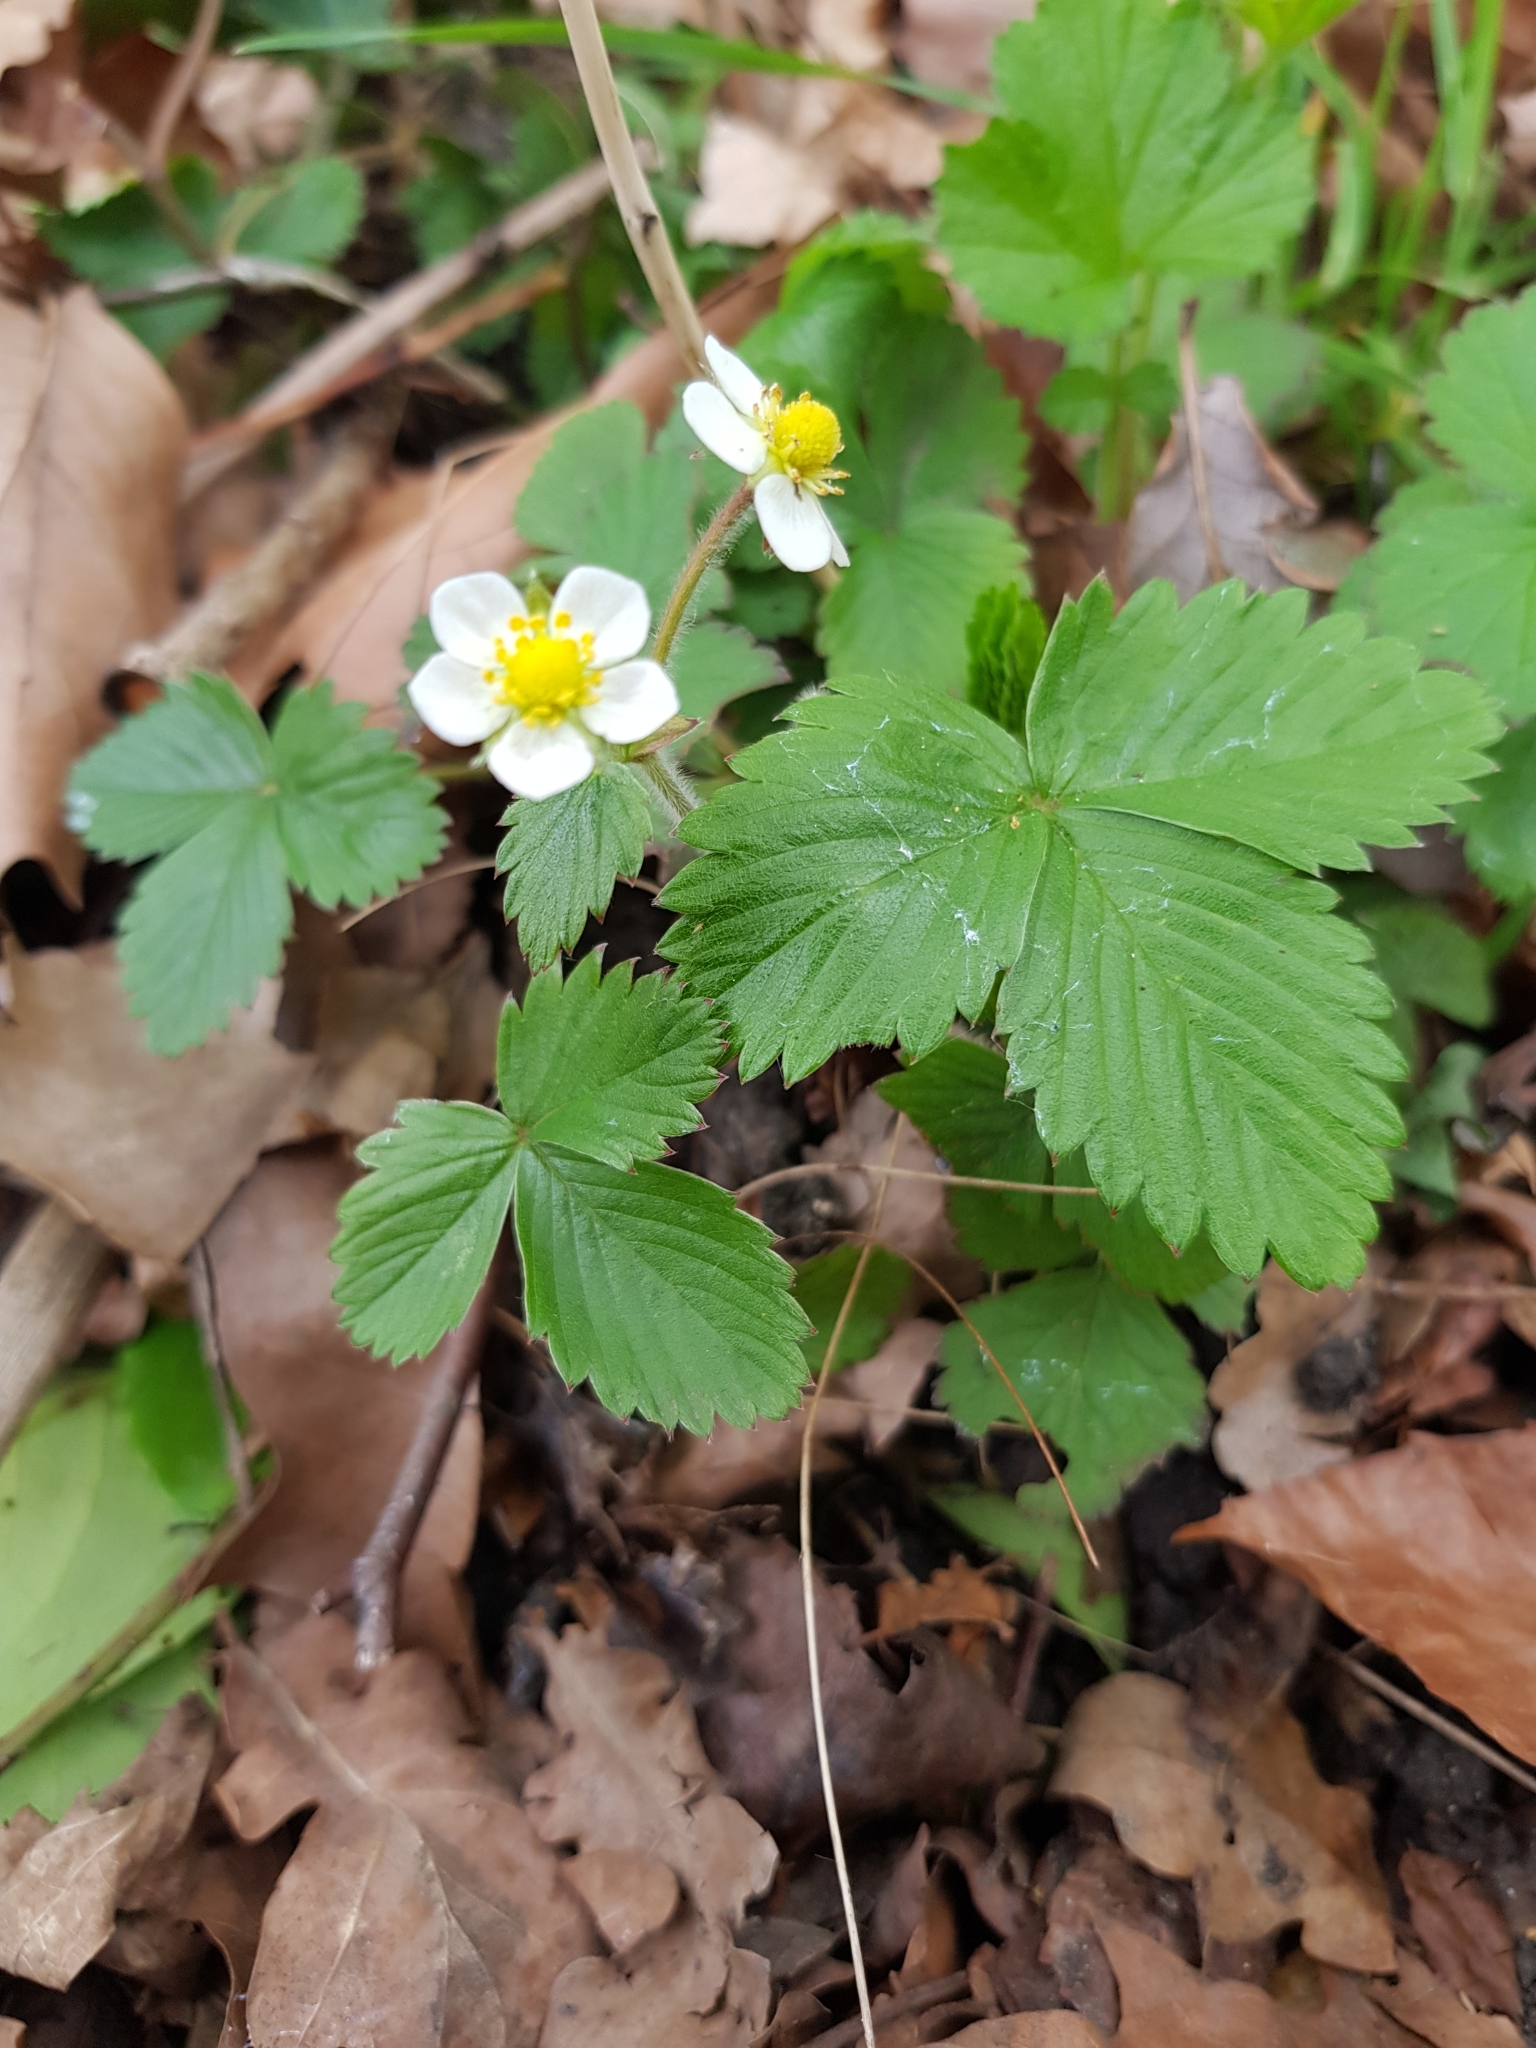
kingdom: Plantae
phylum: Tracheophyta
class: Magnoliopsida
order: Rosales
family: Rosaceae
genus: Fragaria
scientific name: Fragaria vesca
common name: Wild strawberry
